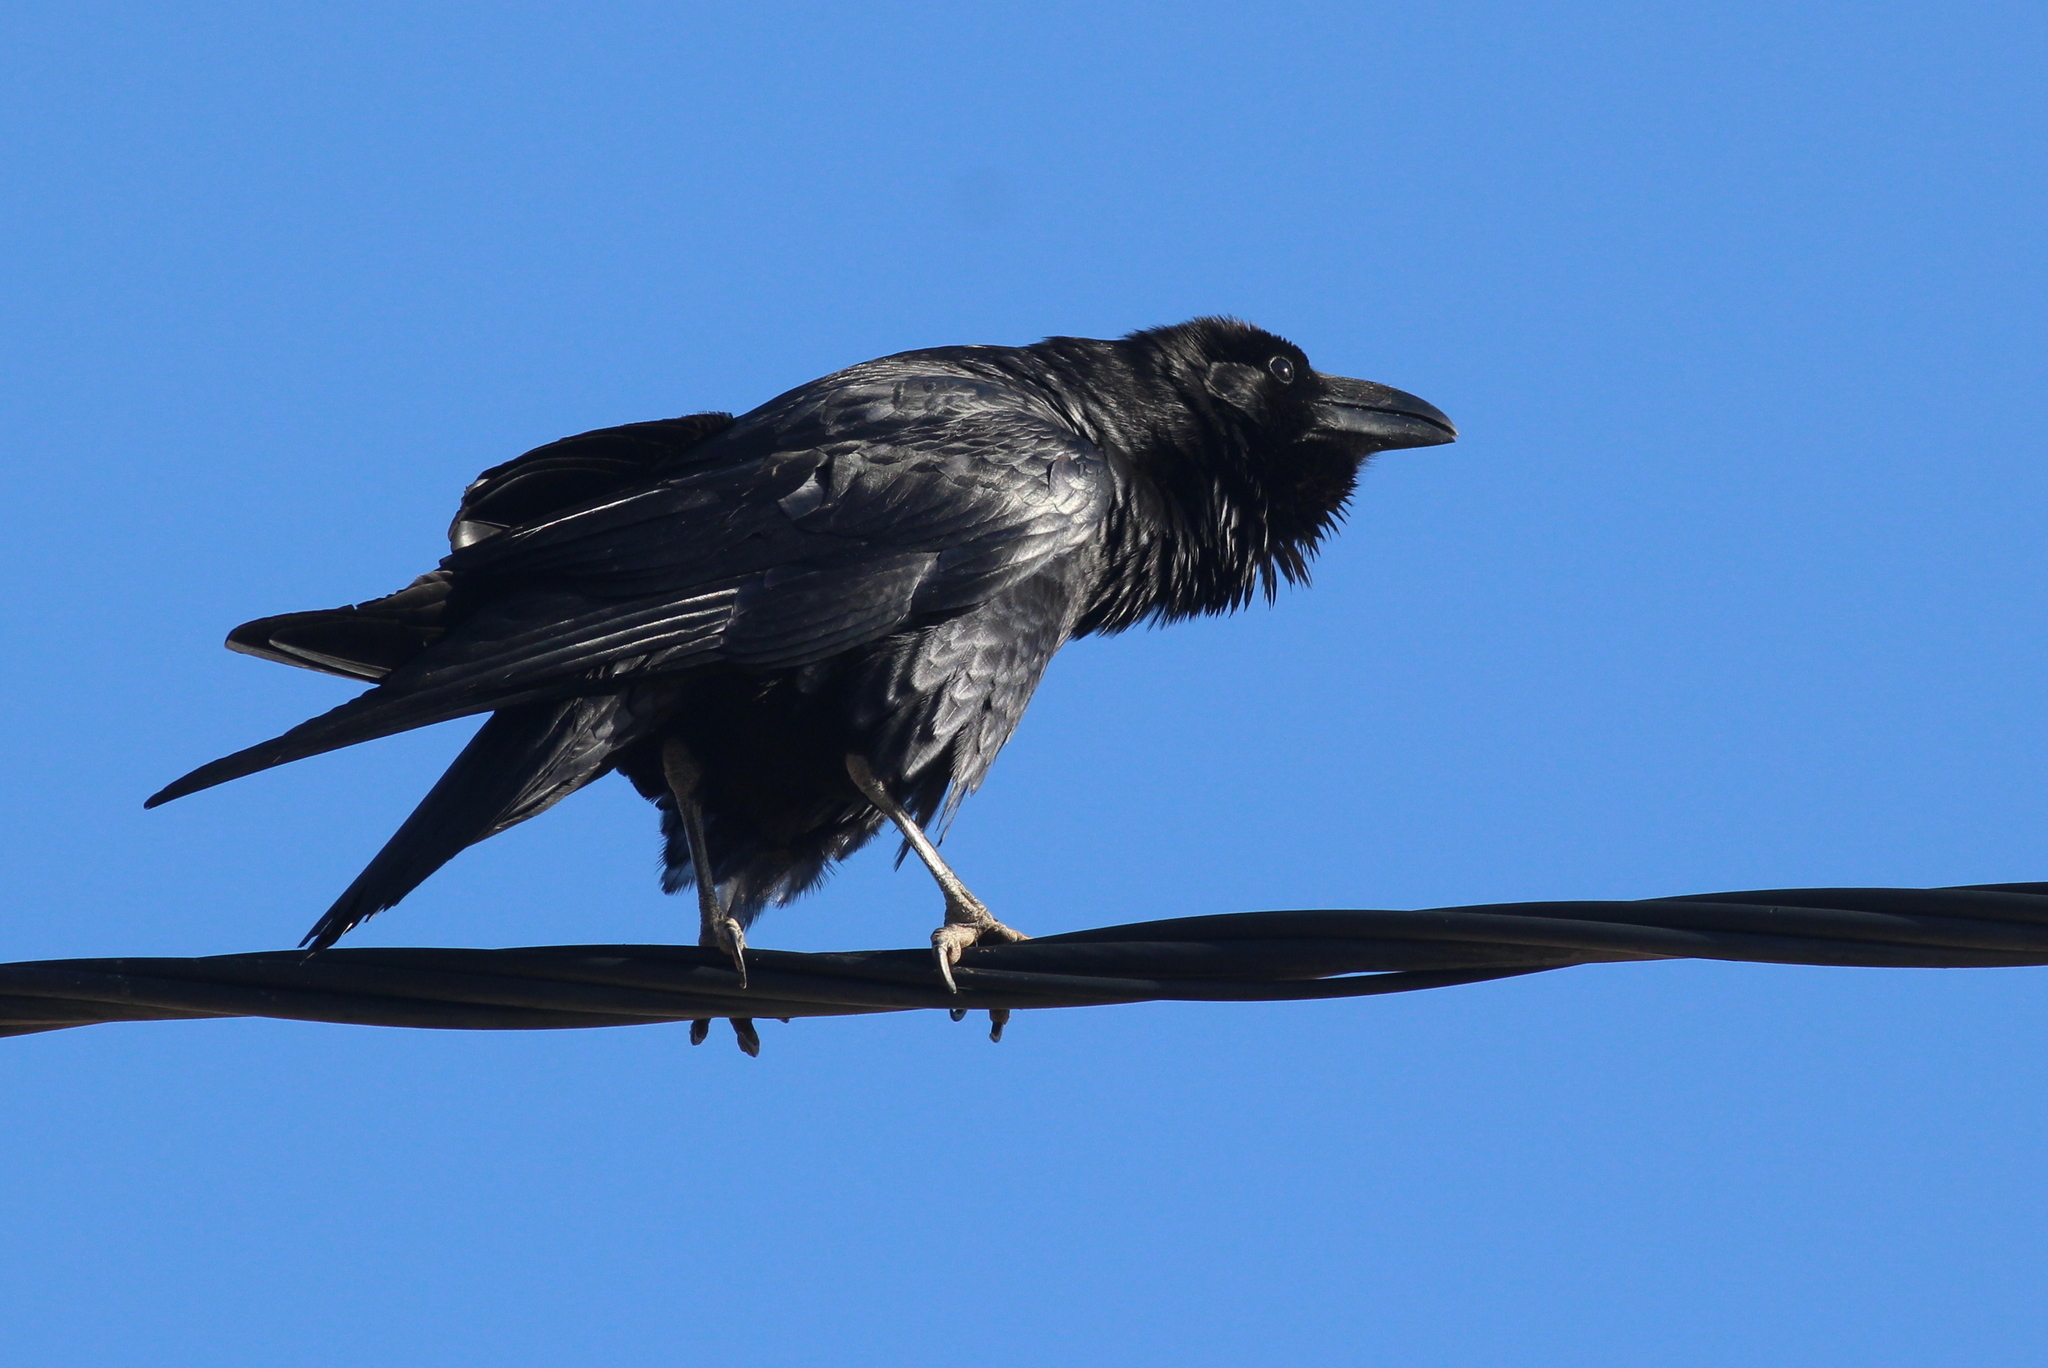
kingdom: Animalia
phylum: Chordata
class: Aves
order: Passeriformes
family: Corvidae
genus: Corvus
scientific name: Corvus corax
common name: Common raven
